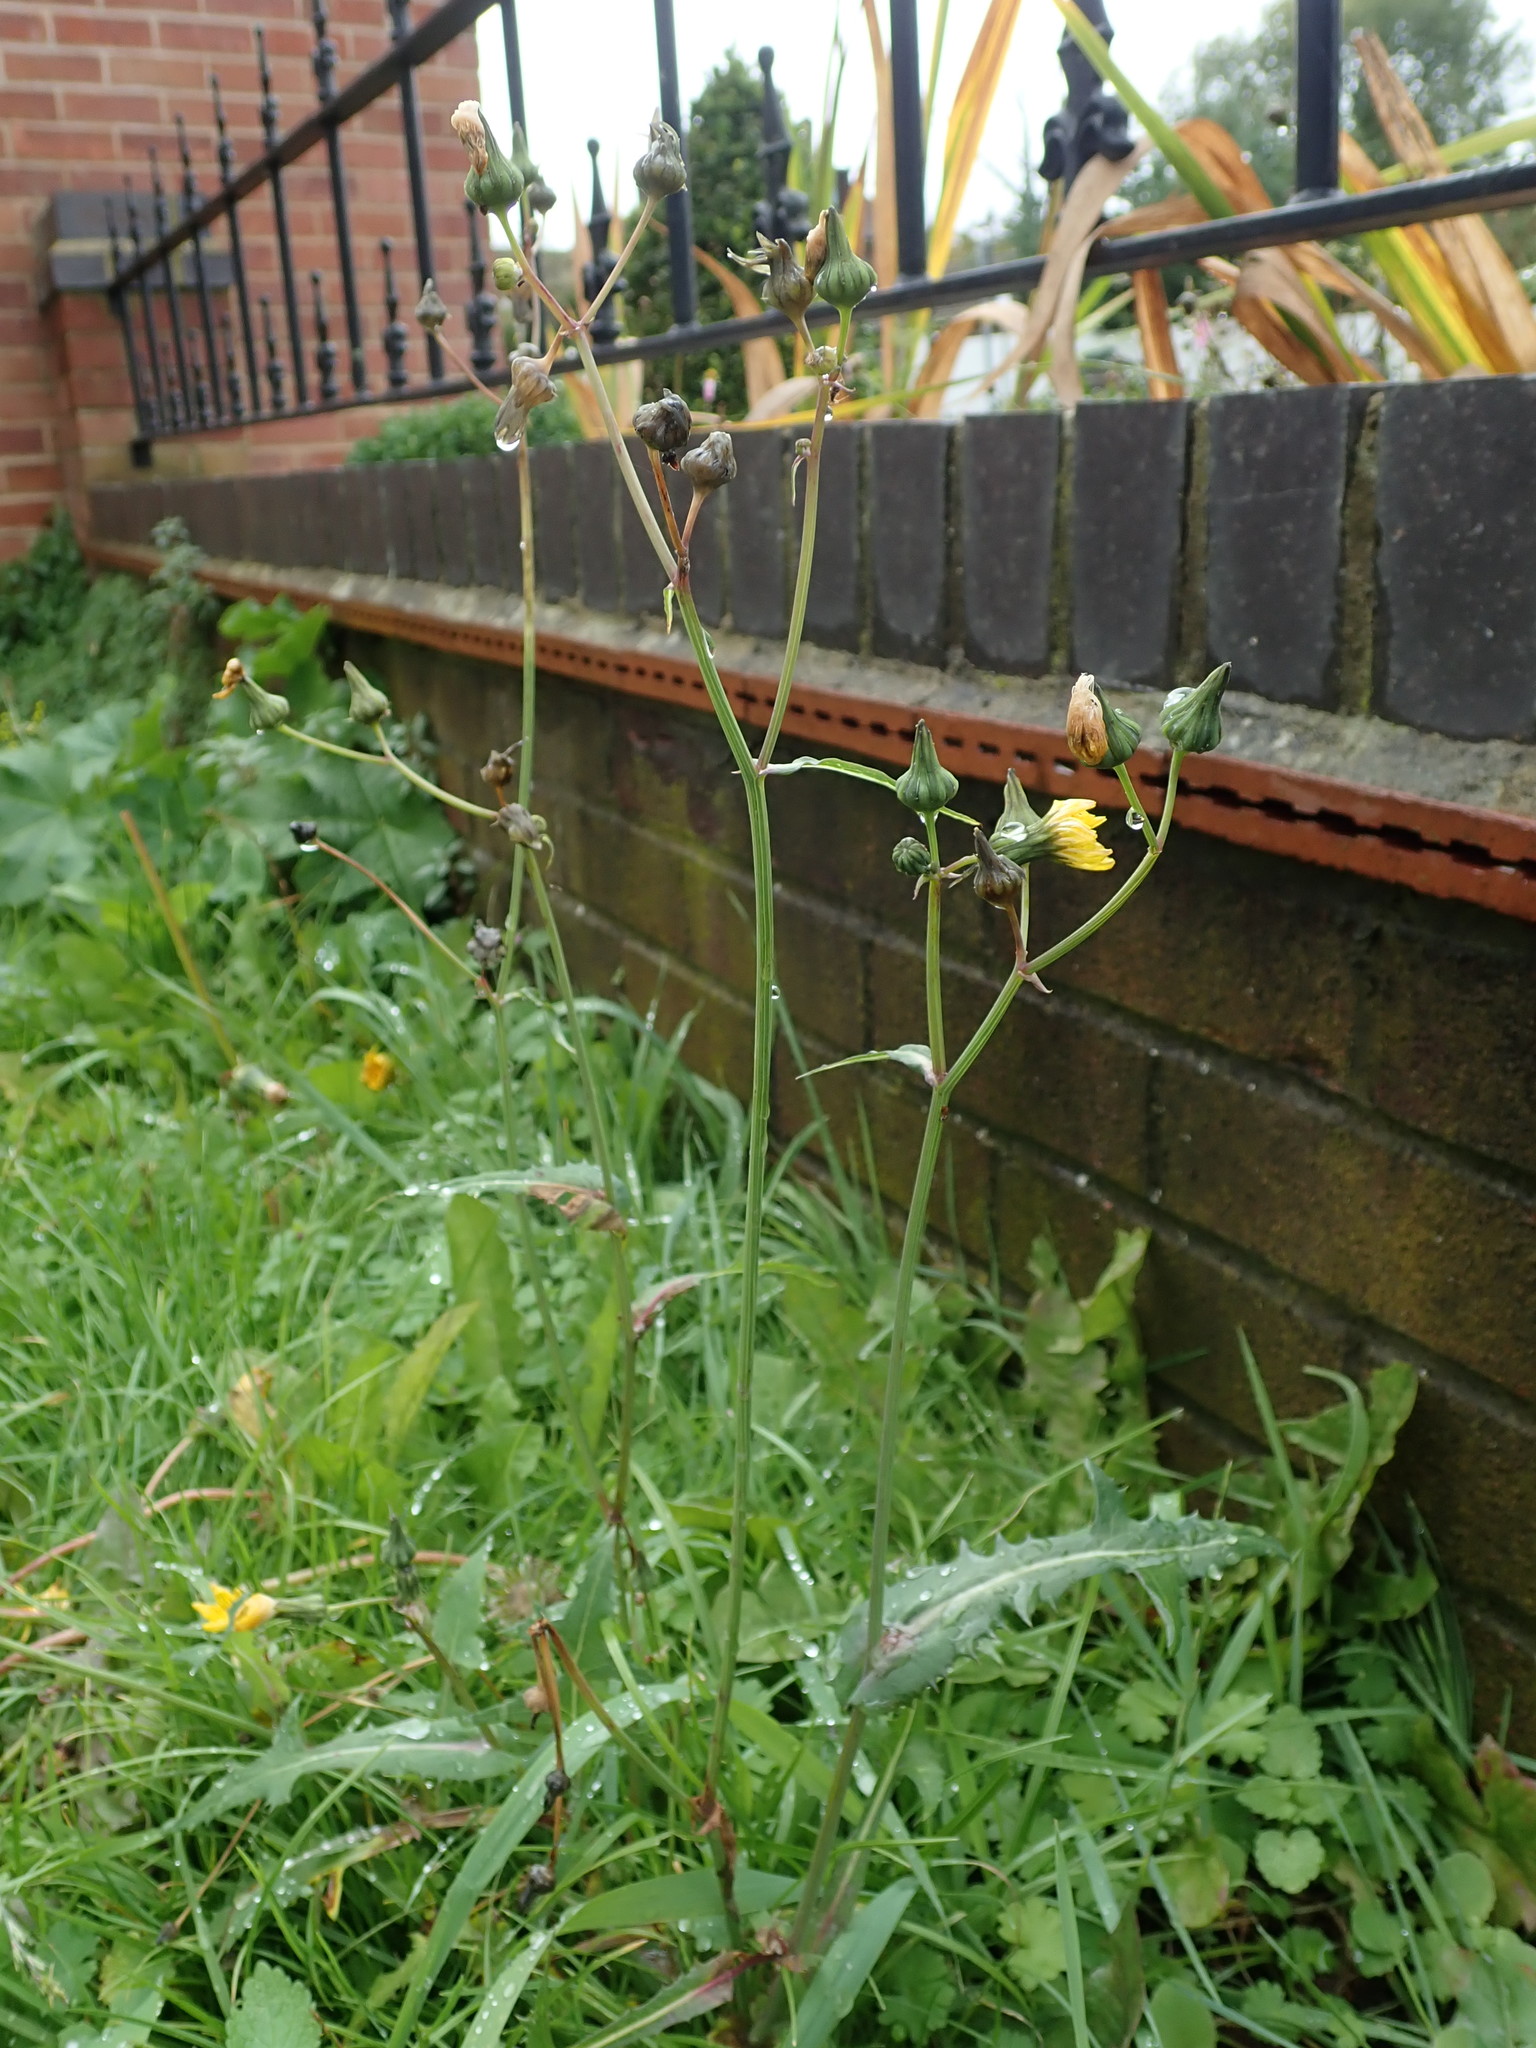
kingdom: Plantae
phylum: Tracheophyta
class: Magnoliopsida
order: Asterales
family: Asteraceae
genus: Sonchus
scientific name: Sonchus oleraceus
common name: Common sowthistle
